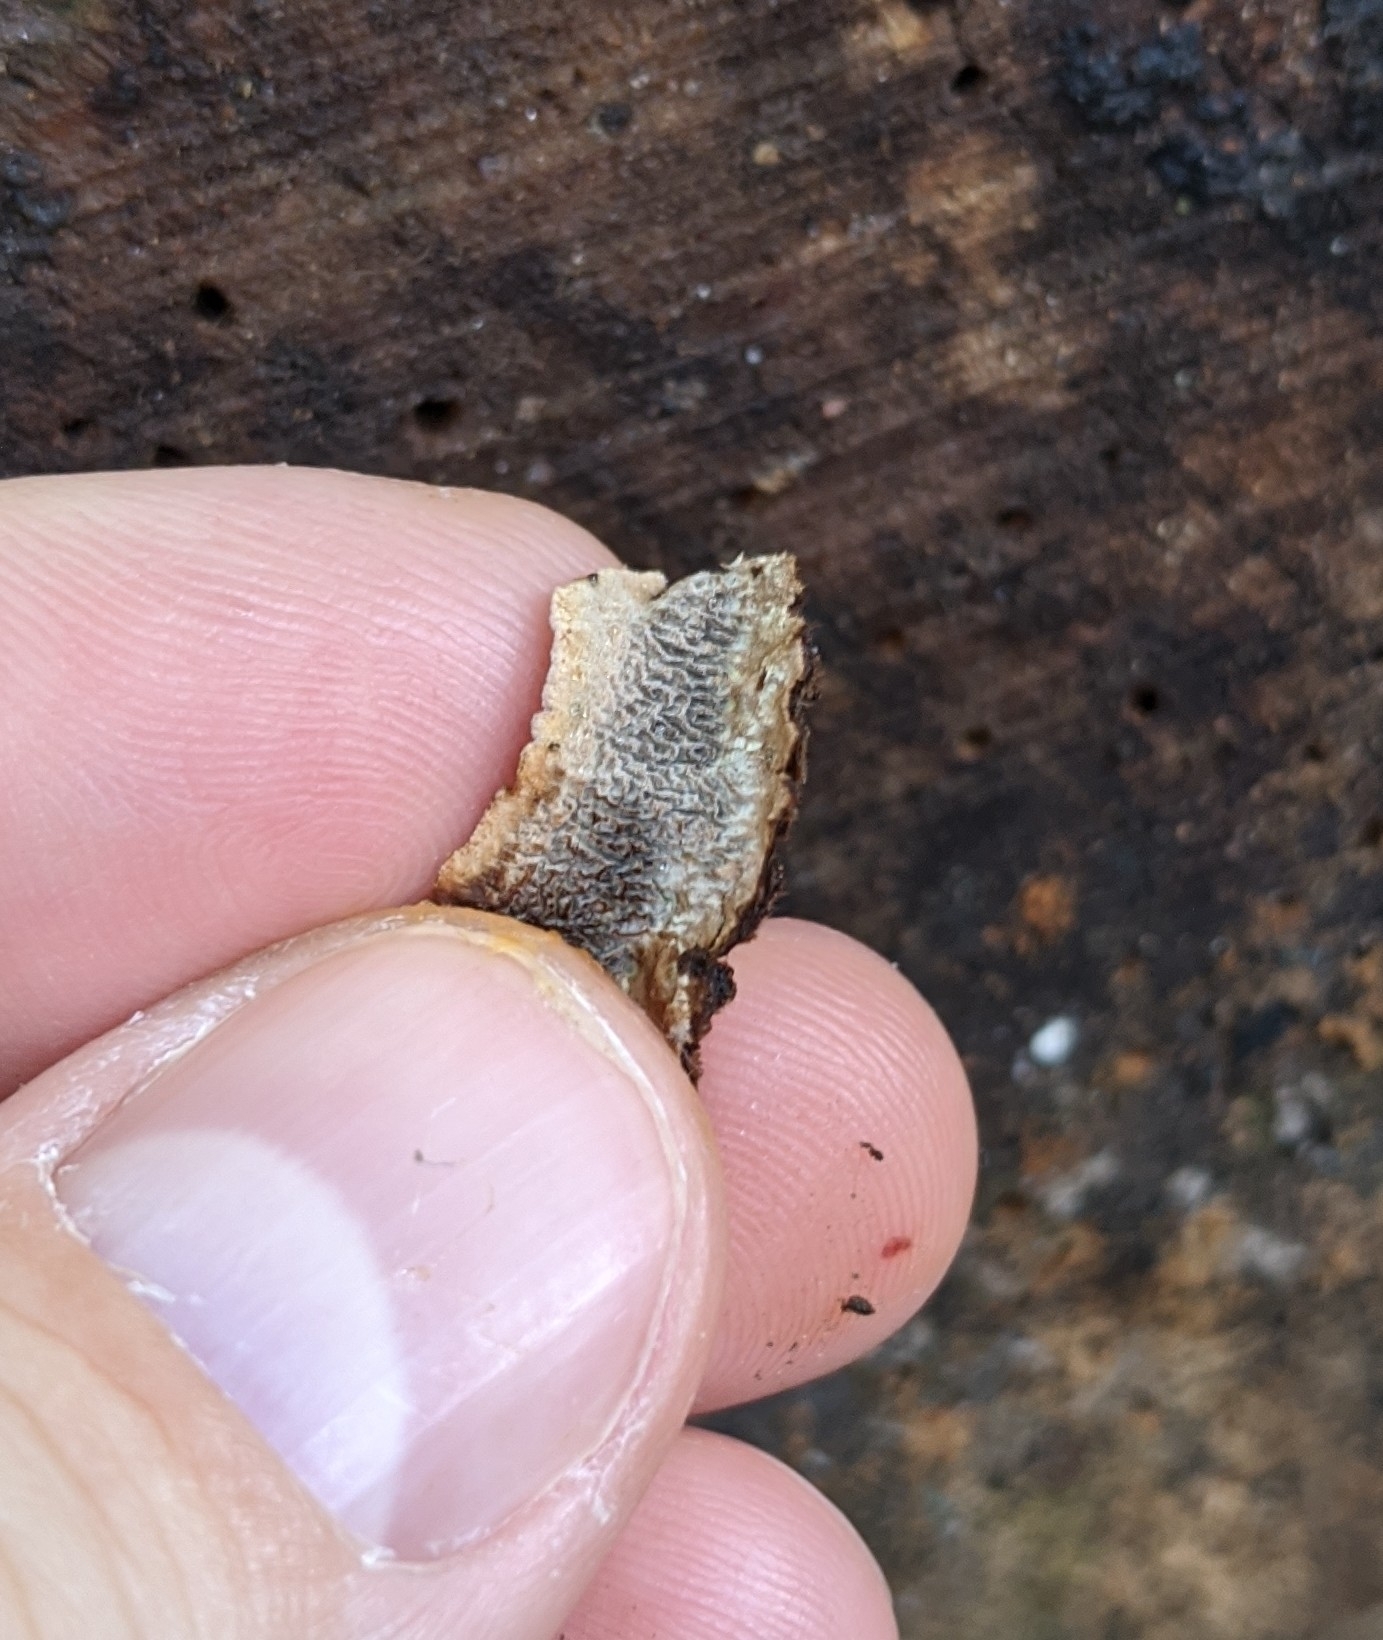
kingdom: Fungi
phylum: Basidiomycota
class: Agaricomycetes
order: Polyporales
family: Polyporaceae
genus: Dentocorticium
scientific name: Dentocorticium portoricense
